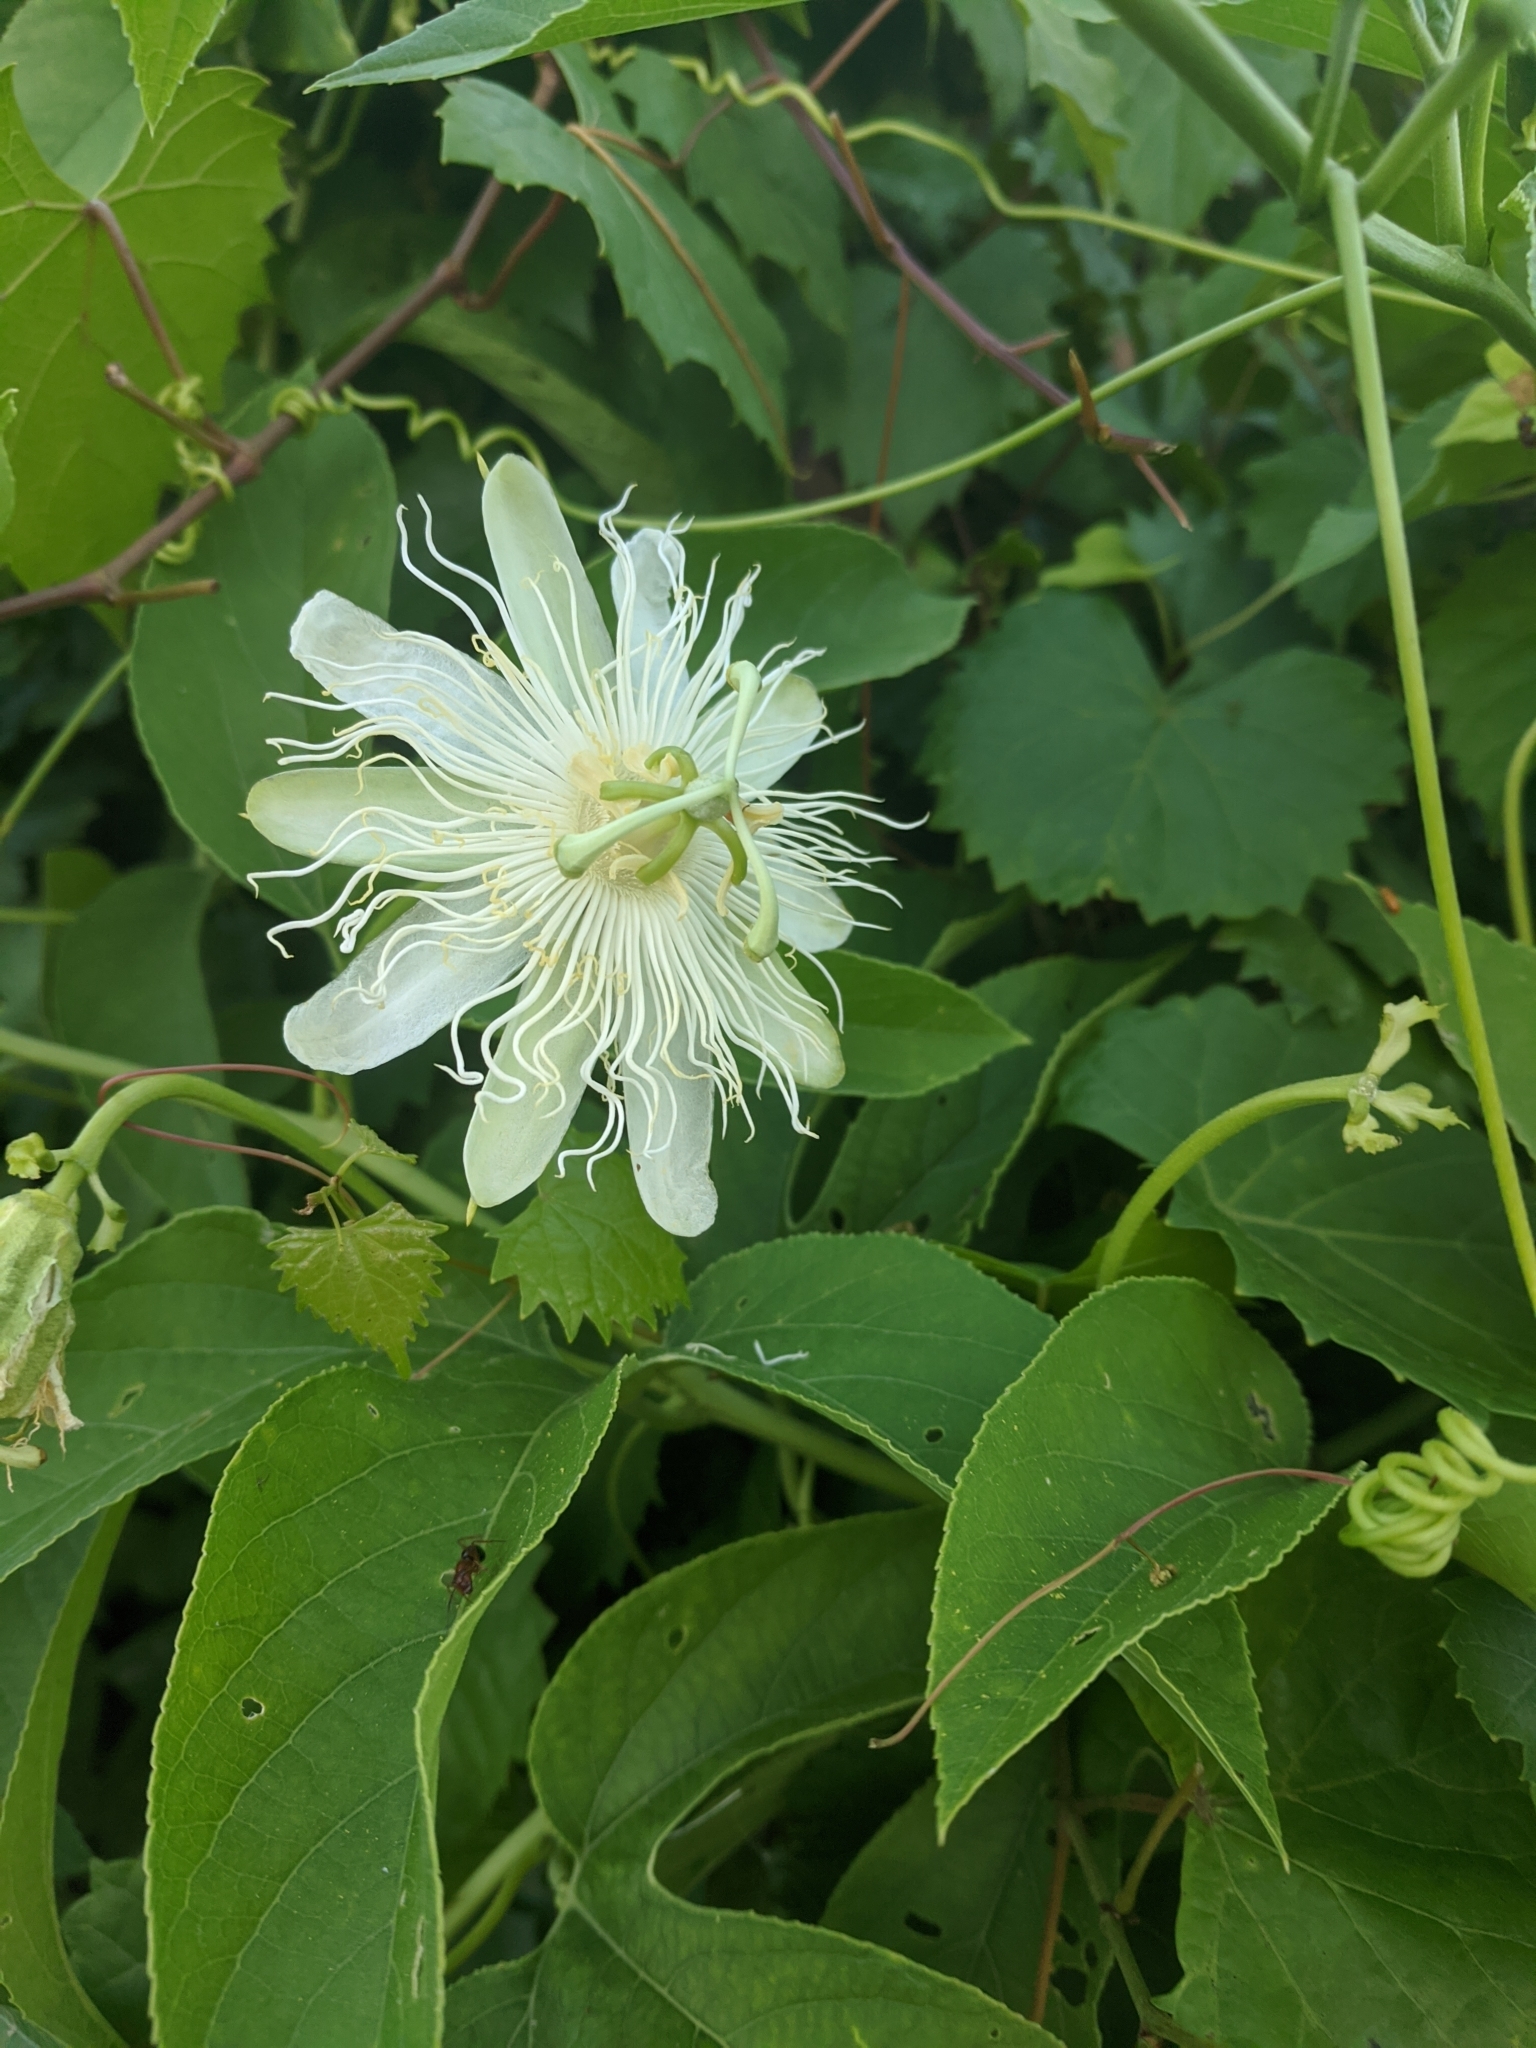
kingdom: Plantae
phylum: Tracheophyta
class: Magnoliopsida
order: Malpighiales
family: Passifloraceae
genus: Passiflora
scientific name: Passiflora incarnata
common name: Apricot-vine
